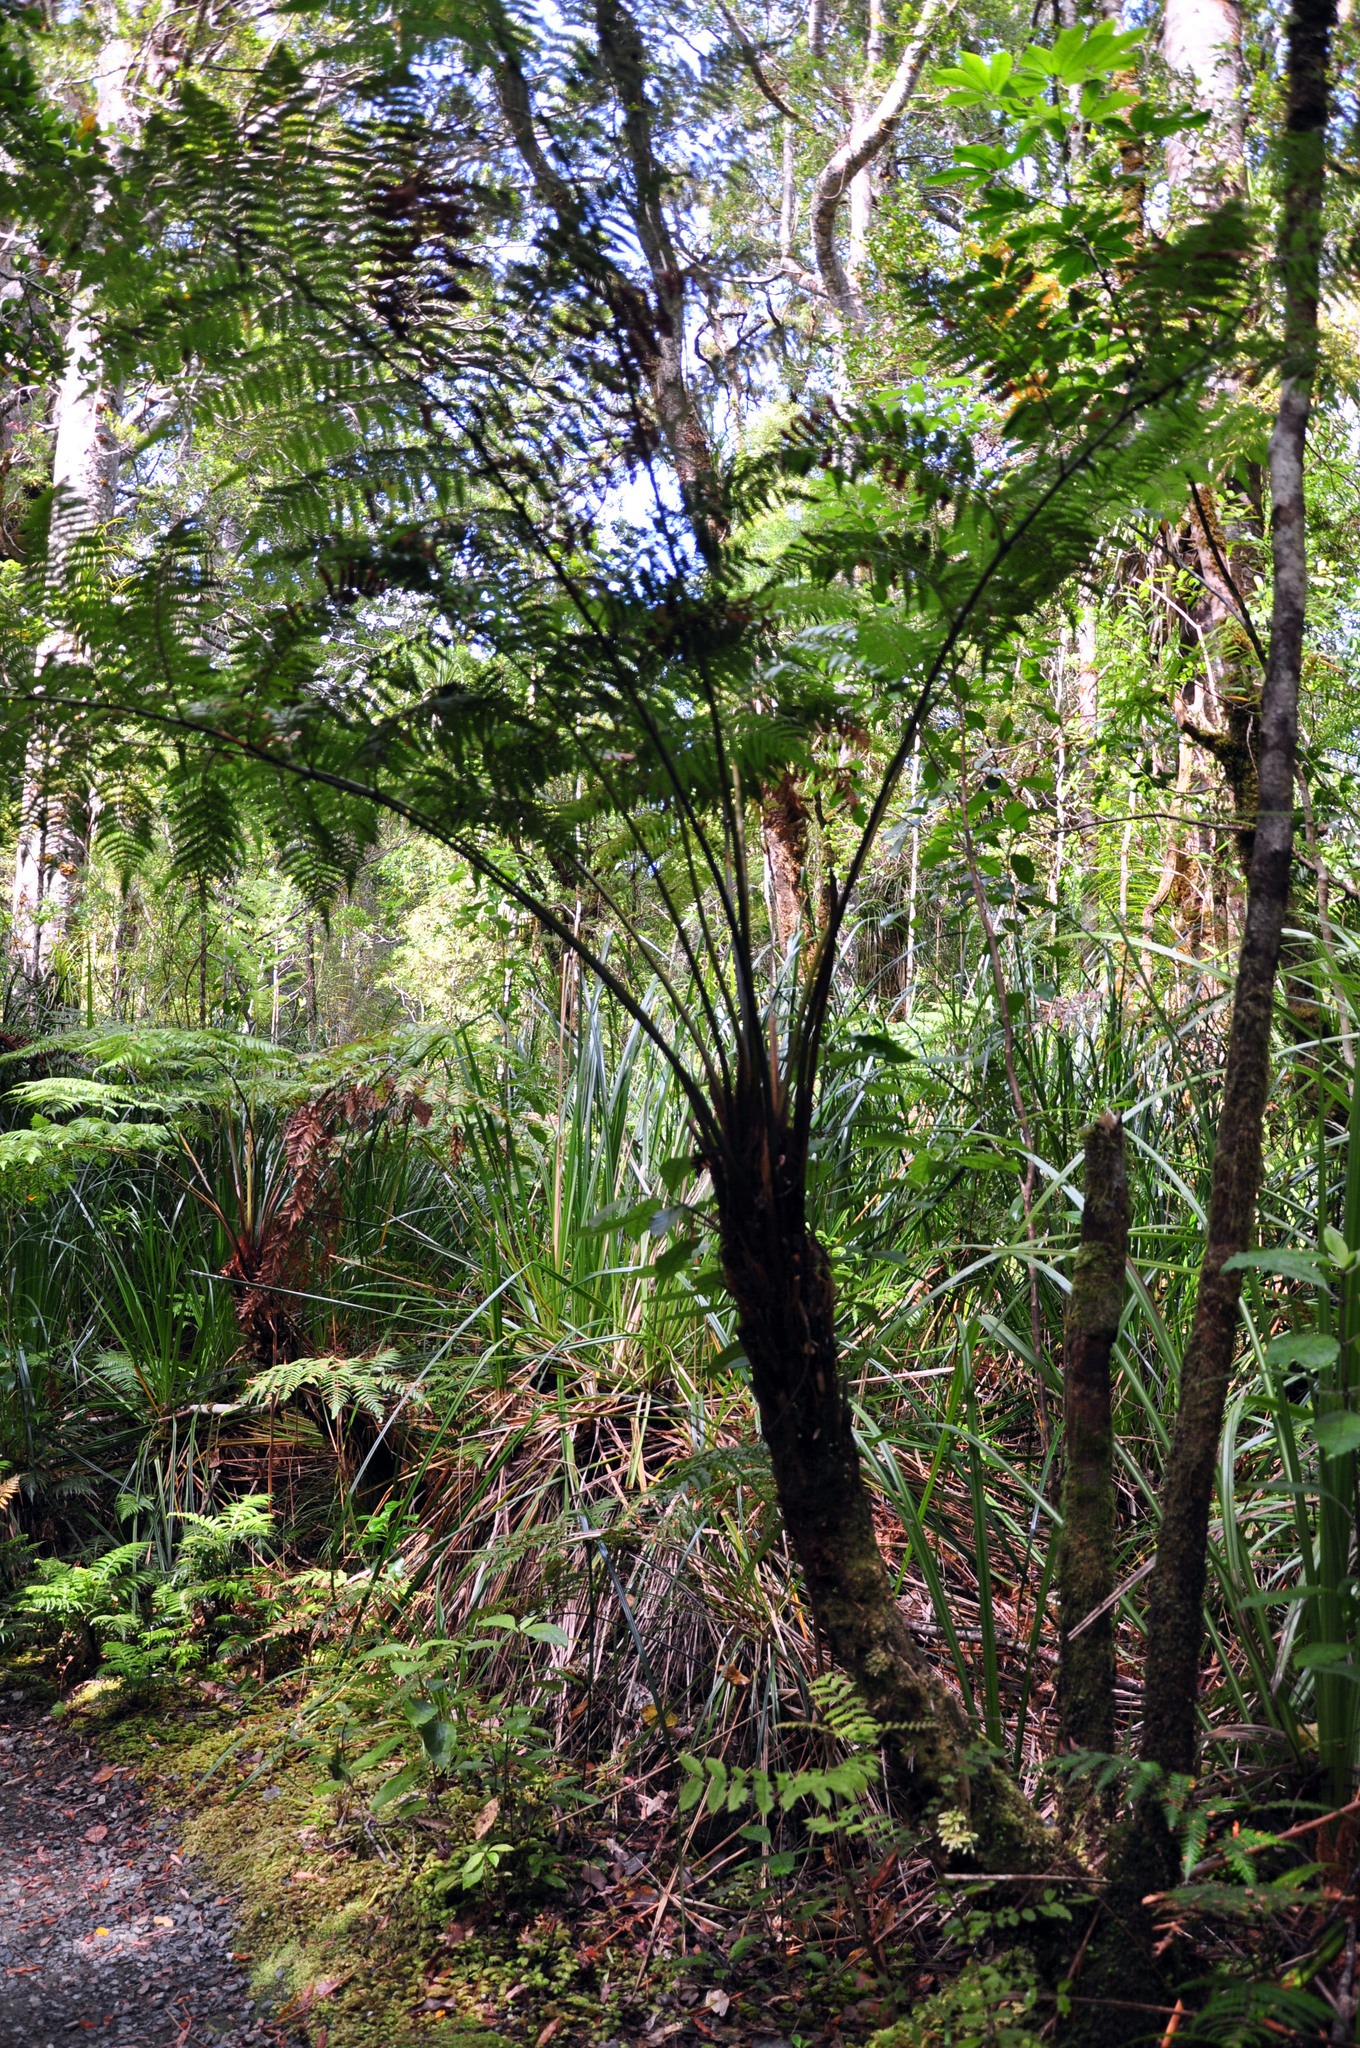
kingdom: Plantae
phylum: Tracheophyta
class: Polypodiopsida
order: Cyatheales
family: Dicksoniaceae
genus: Dicksonia
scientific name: Dicksonia lanata
